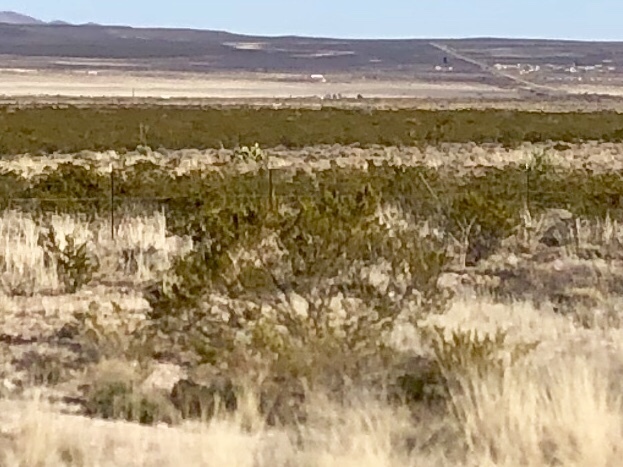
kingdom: Plantae
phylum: Tracheophyta
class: Magnoliopsida
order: Zygophyllales
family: Zygophyllaceae
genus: Larrea
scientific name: Larrea tridentata
